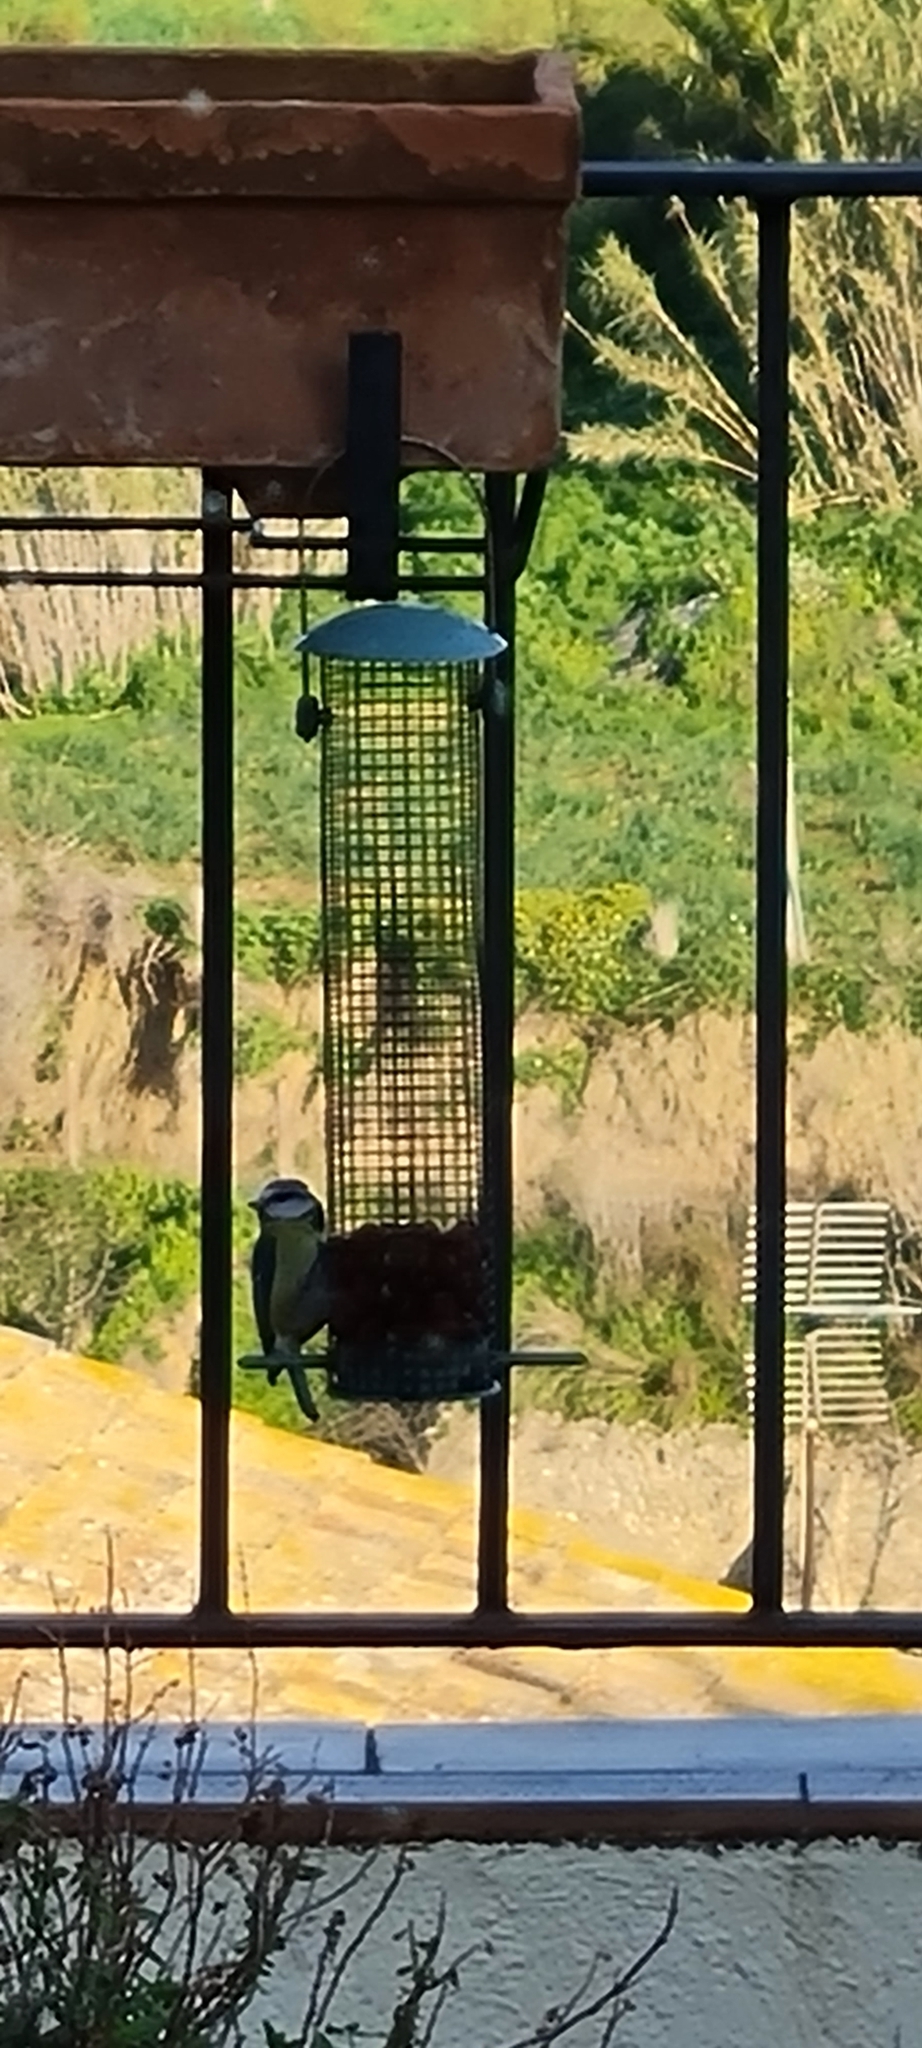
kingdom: Animalia
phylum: Chordata
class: Aves
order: Passeriformes
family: Paridae
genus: Cyanistes
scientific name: Cyanistes caeruleus
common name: Eurasian blue tit
